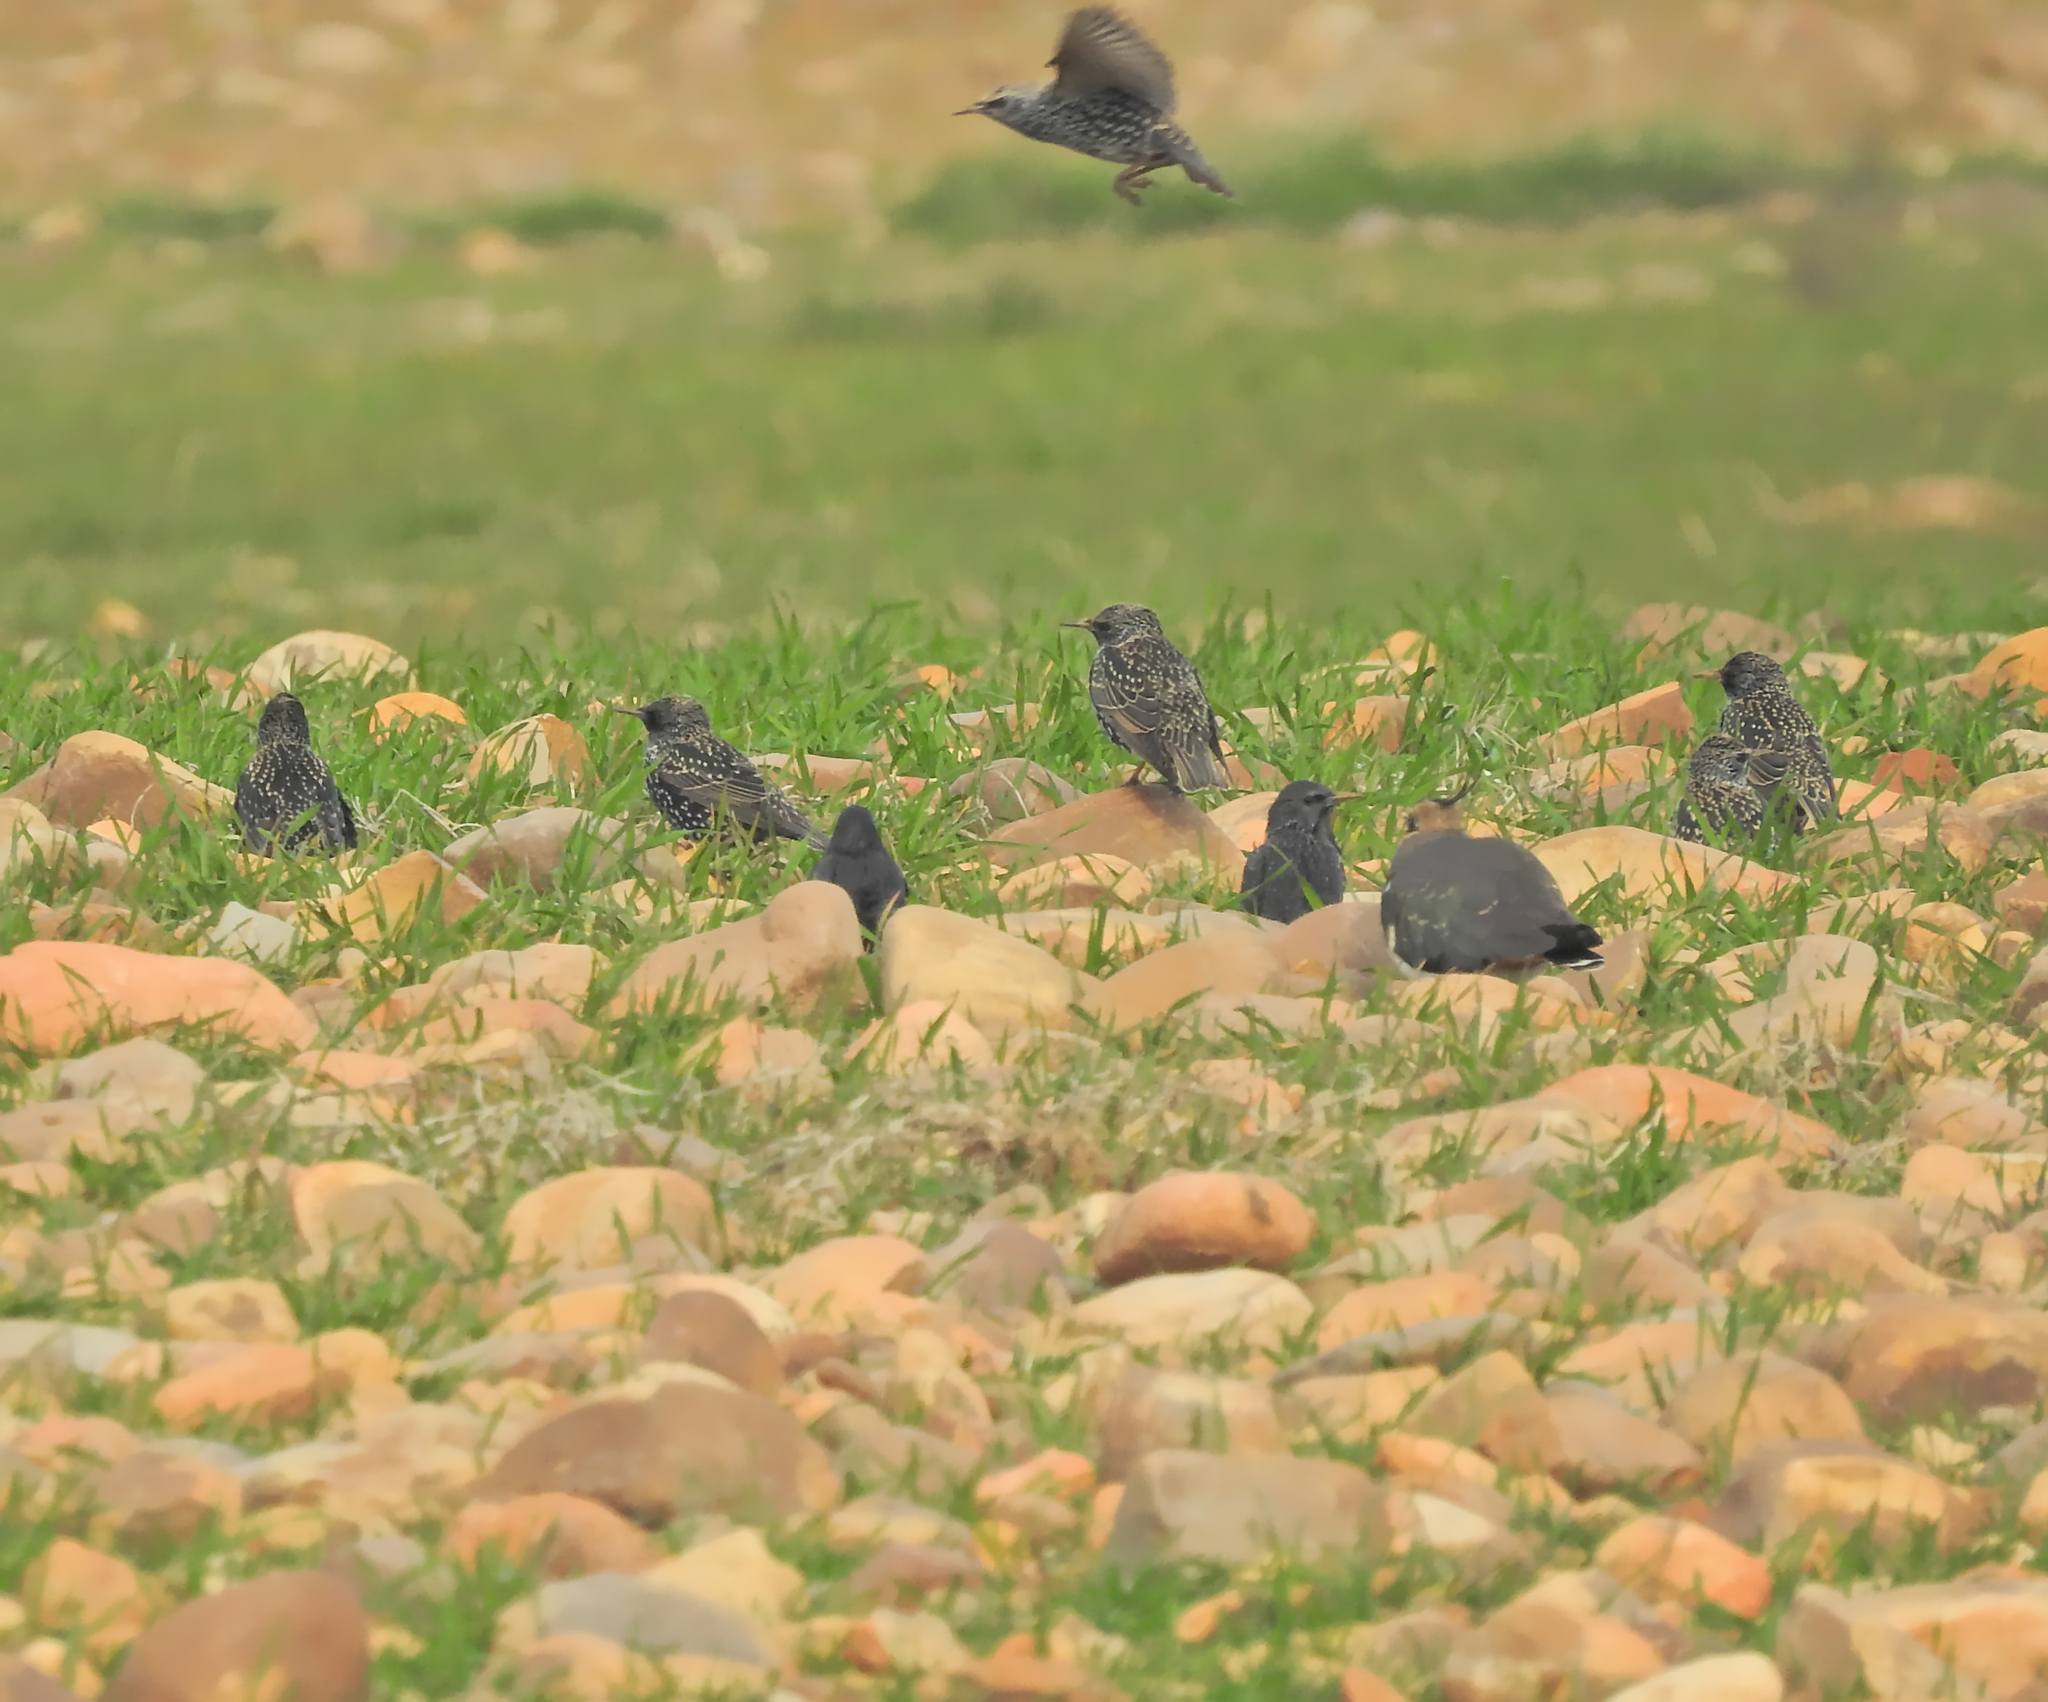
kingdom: Animalia
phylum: Chordata
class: Aves
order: Passeriformes
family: Sturnidae
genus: Sturnus
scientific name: Sturnus vulgaris
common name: Common starling
